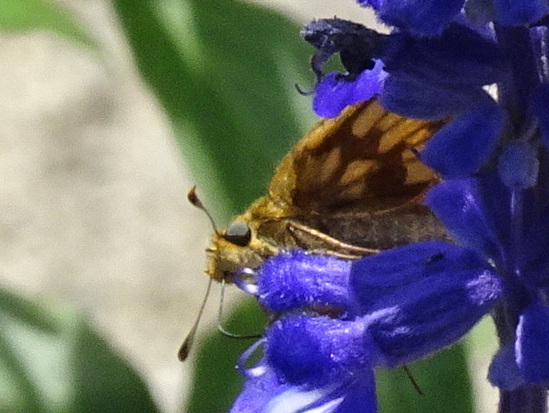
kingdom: Animalia
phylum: Arthropoda
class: Insecta
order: Lepidoptera
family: Hesperiidae
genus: Polites
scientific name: Polites coras
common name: Peck's skipper
